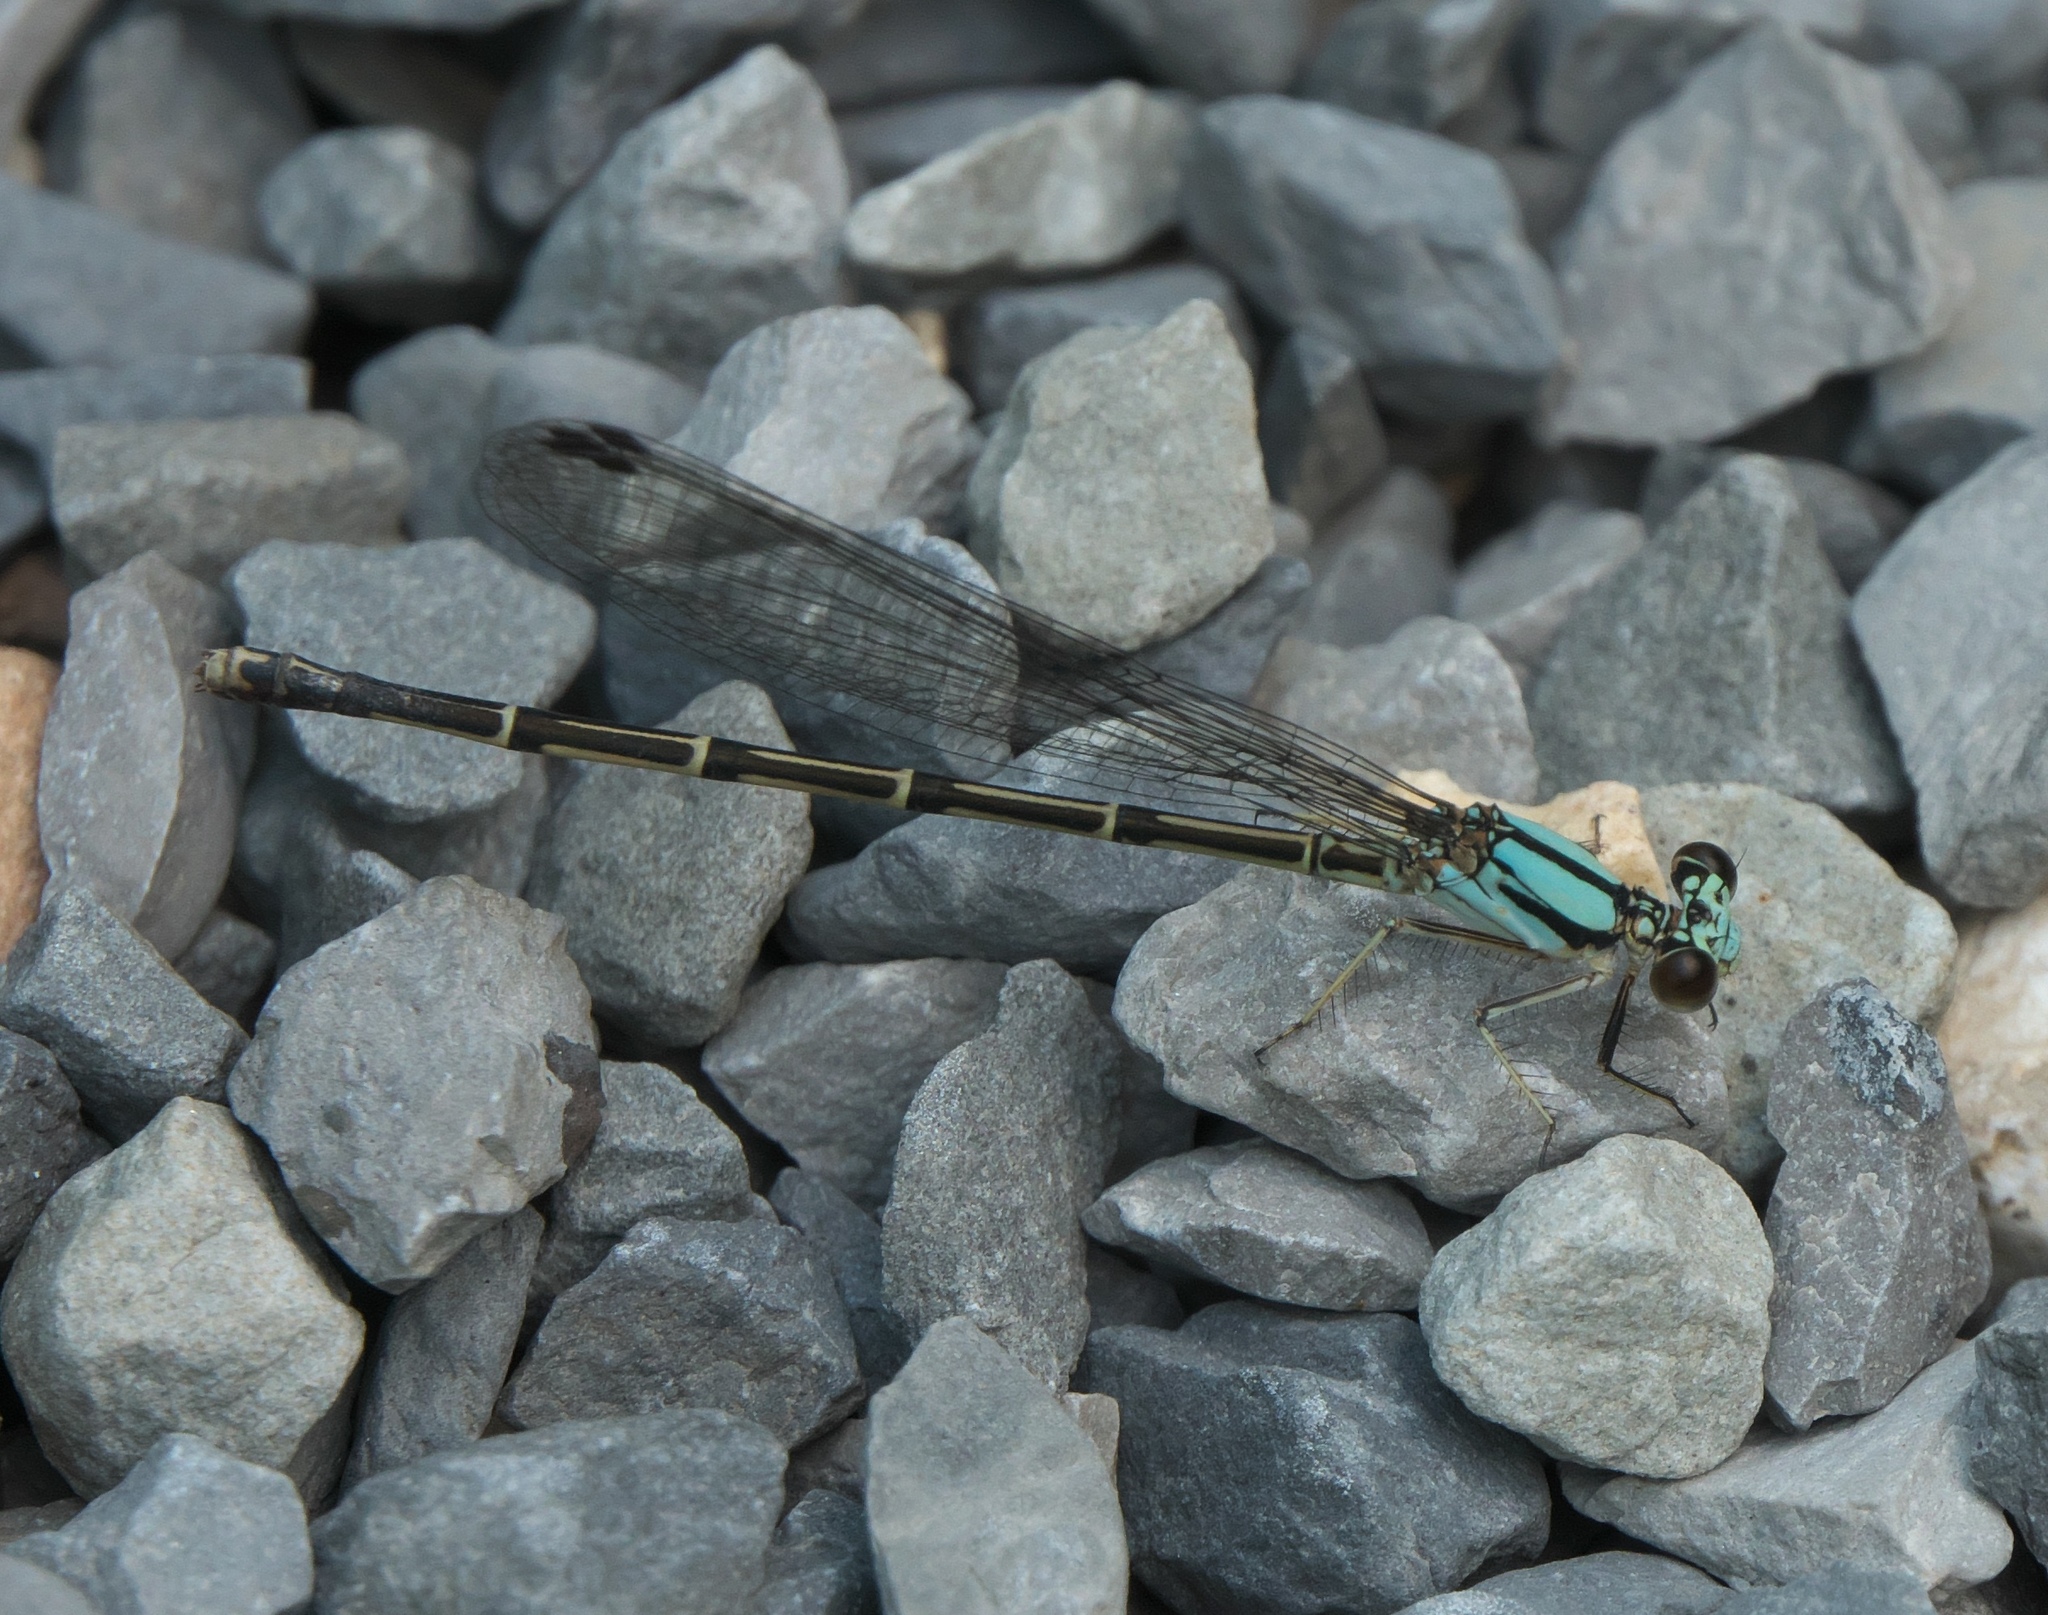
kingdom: Animalia
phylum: Arthropoda
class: Insecta
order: Odonata
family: Coenagrionidae
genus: Argia
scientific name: Argia tibialis
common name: Blue-tipped dancer
